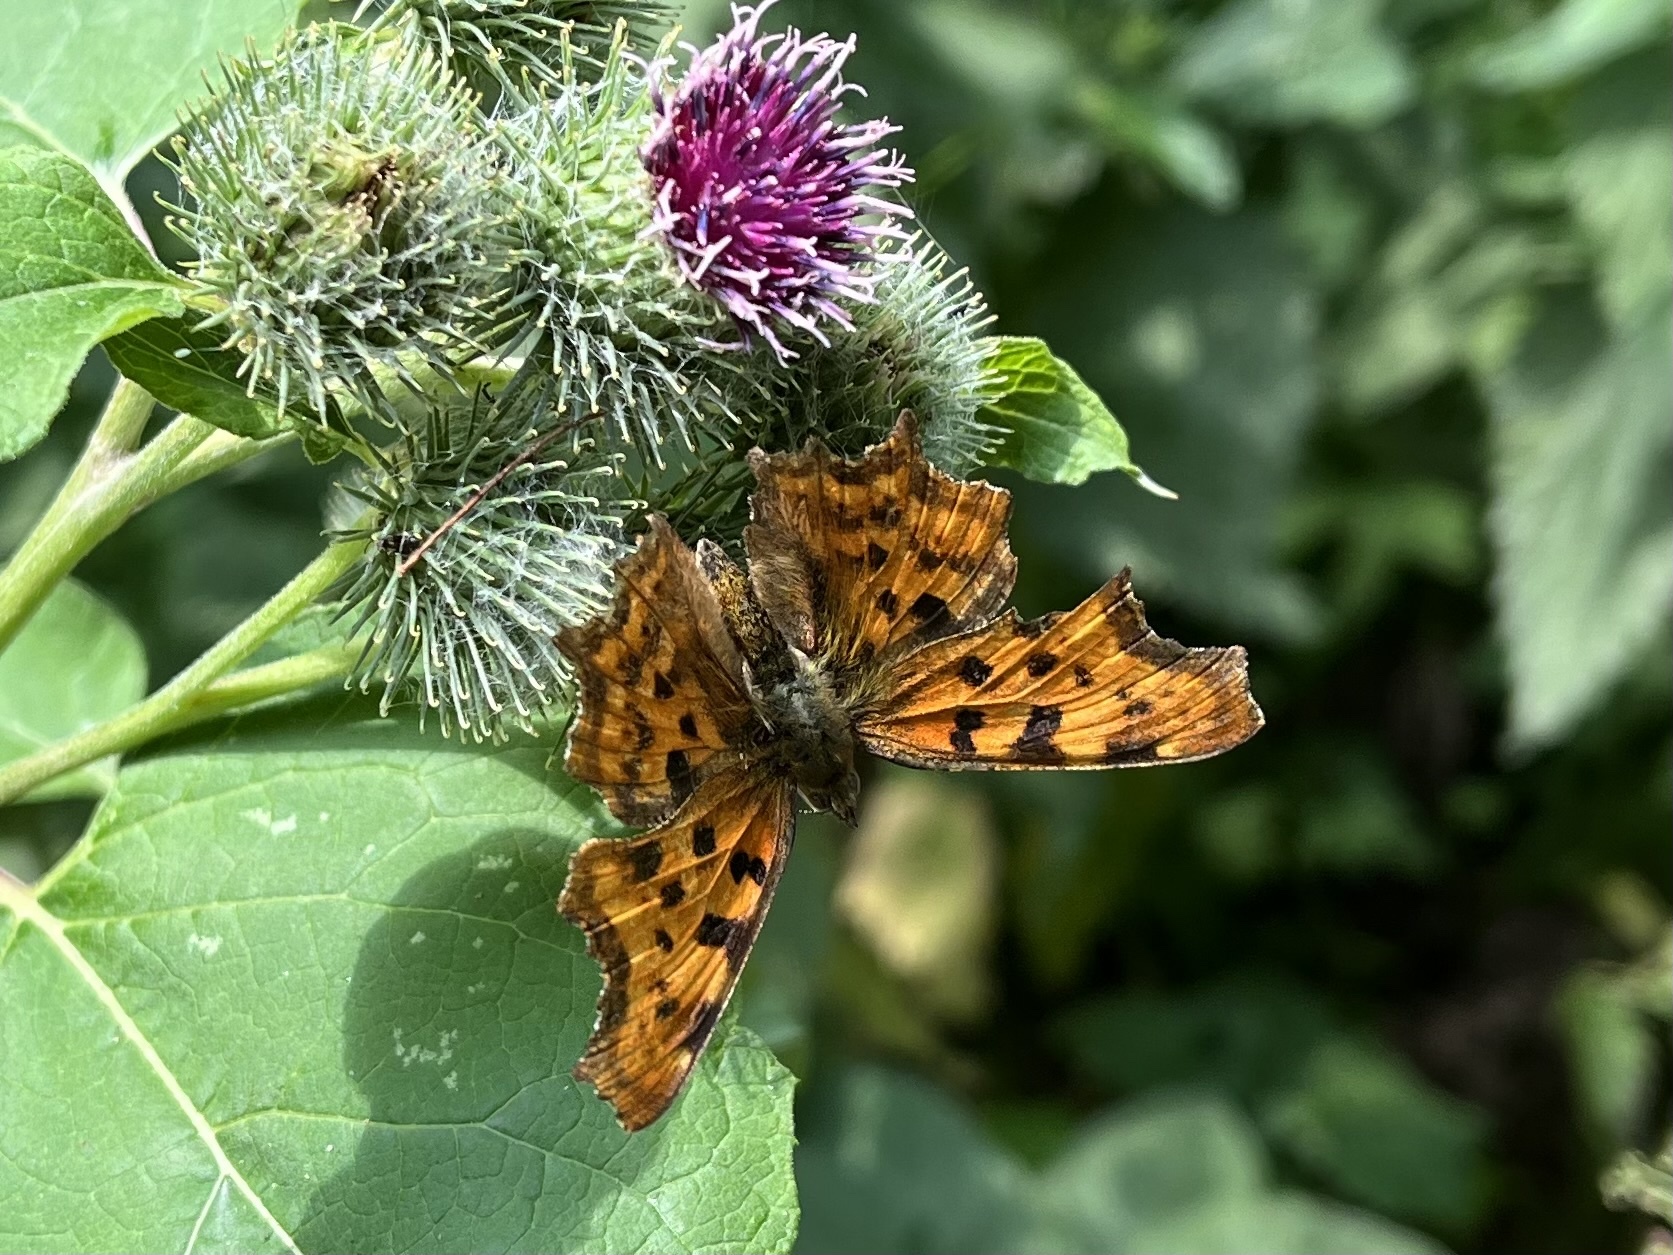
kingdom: Animalia
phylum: Arthropoda
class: Insecta
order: Lepidoptera
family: Nymphalidae
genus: Polygonia
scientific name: Polygonia c-album
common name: Comma
